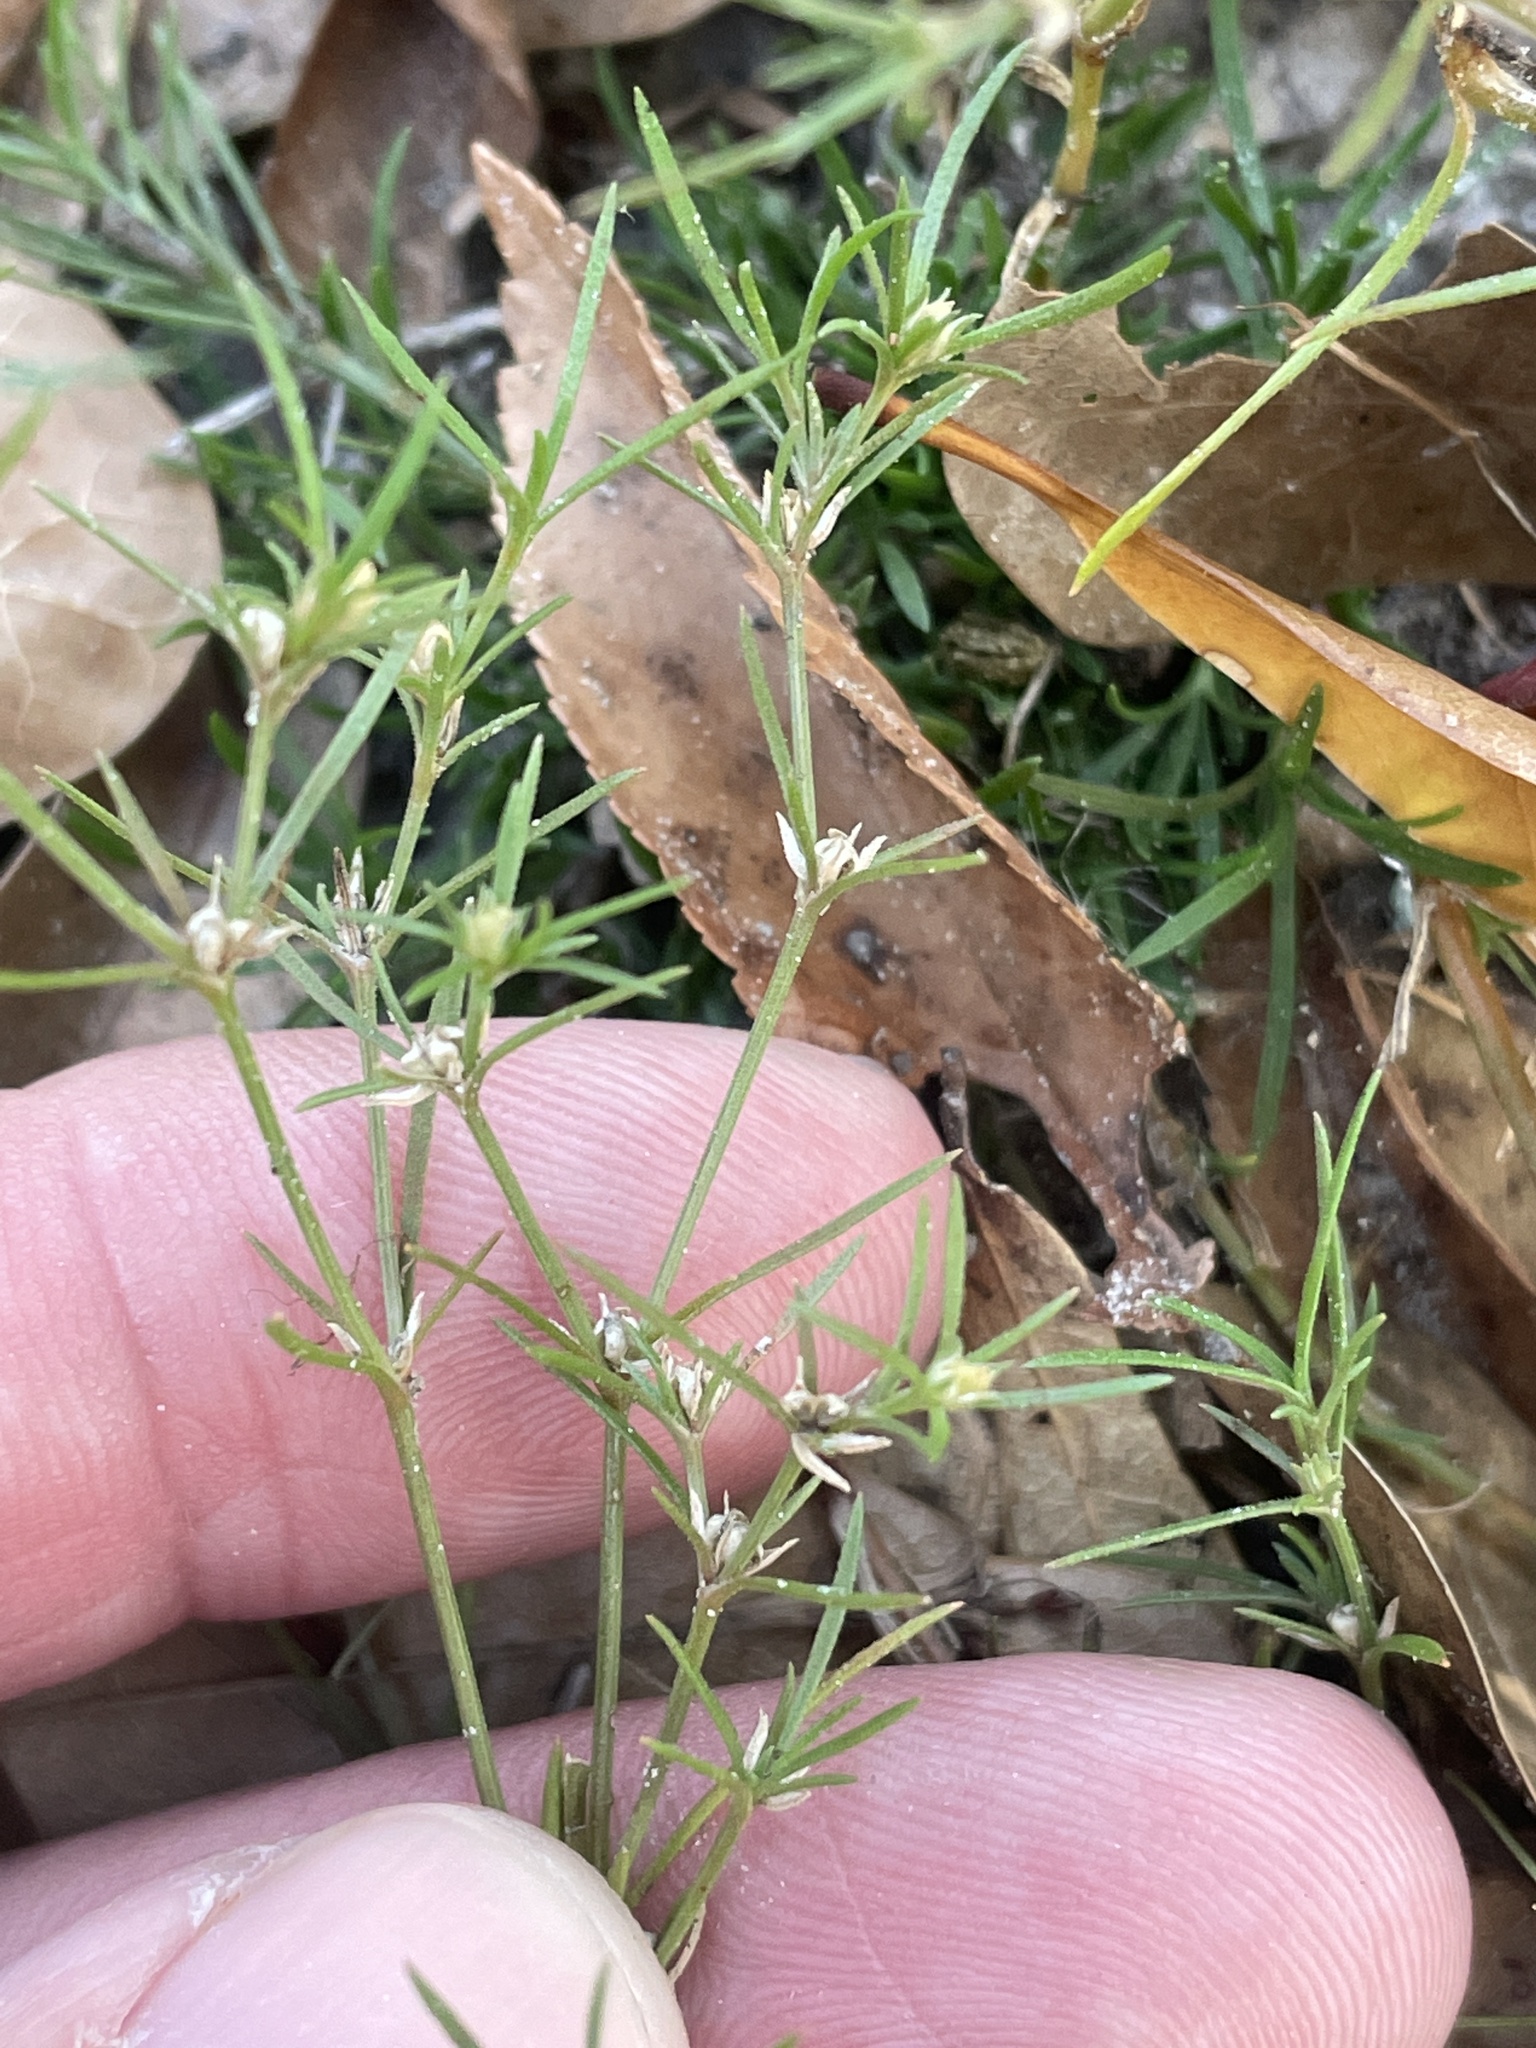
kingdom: Plantae
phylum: Tracheophyta
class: Magnoliopsida
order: Lamiales
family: Tetrachondraceae
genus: Polypremum
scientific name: Polypremum procumbens
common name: Juniper-leaf
